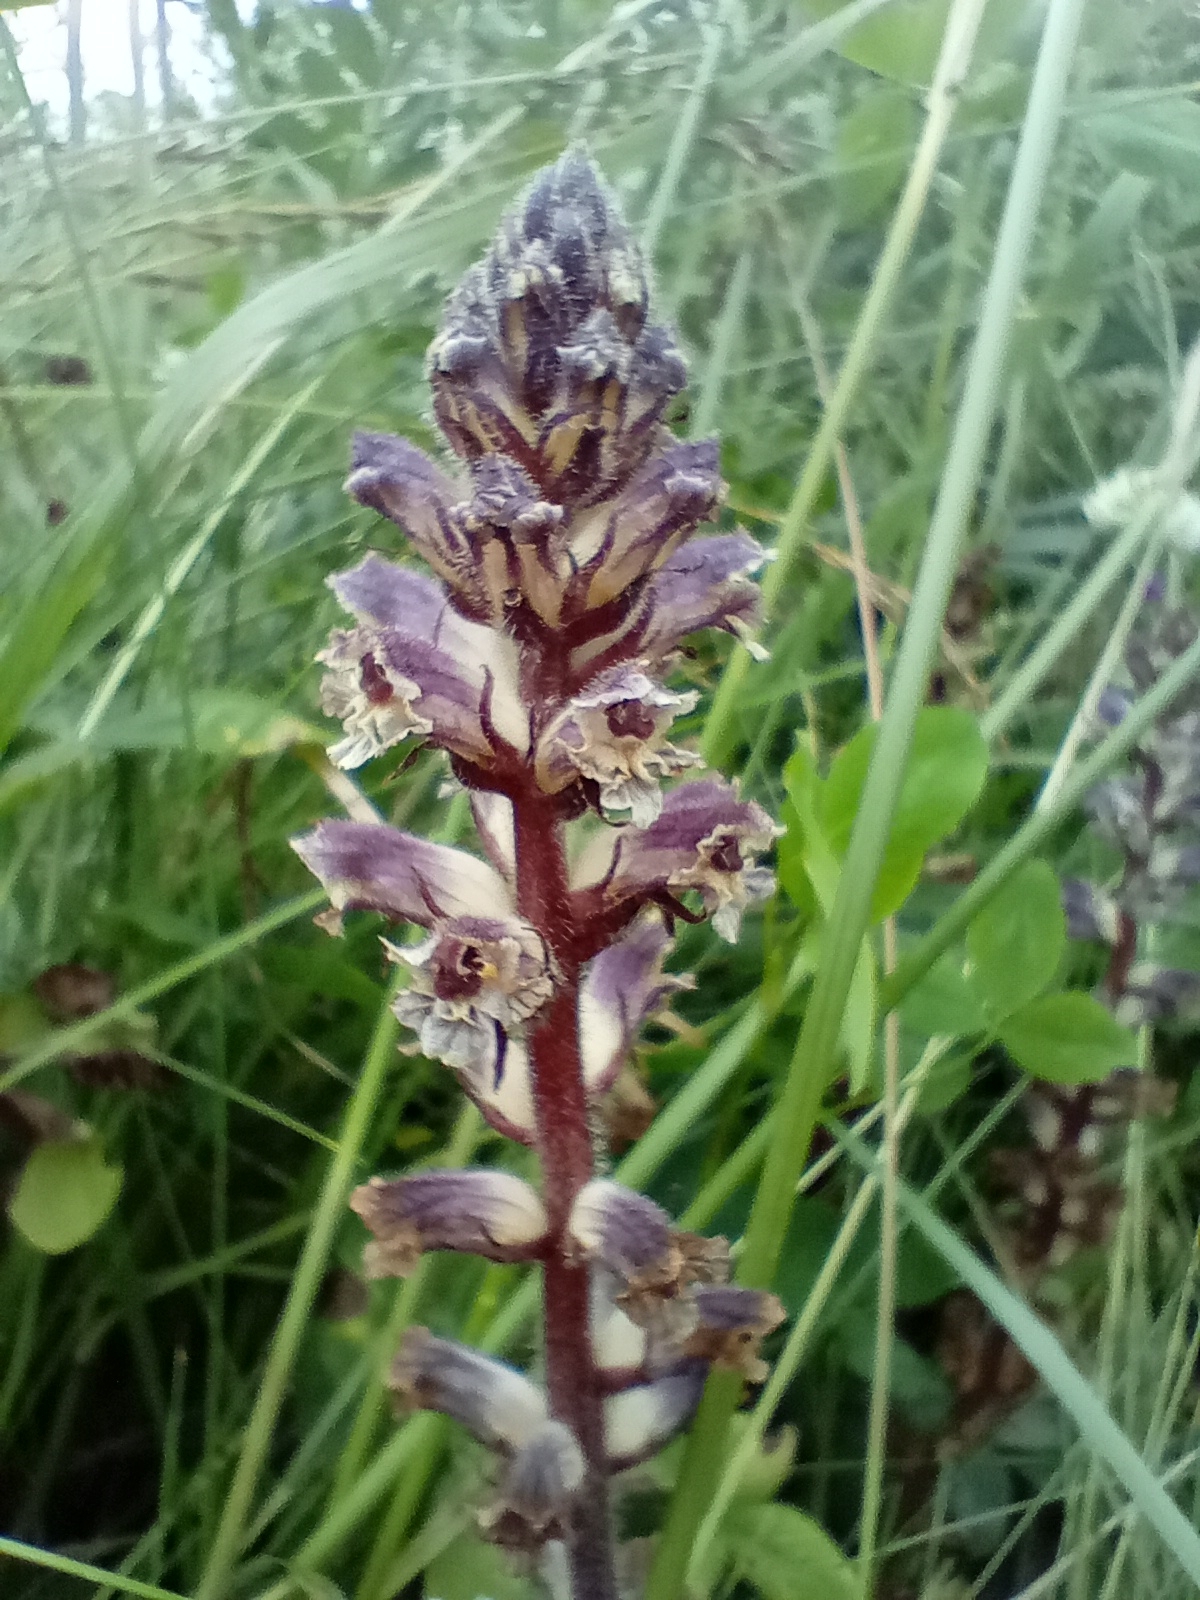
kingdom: Plantae
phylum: Tracheophyta
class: Magnoliopsida
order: Lamiales
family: Orobanchaceae
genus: Orobanche
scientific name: Orobanche minor
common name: Common broomrape
